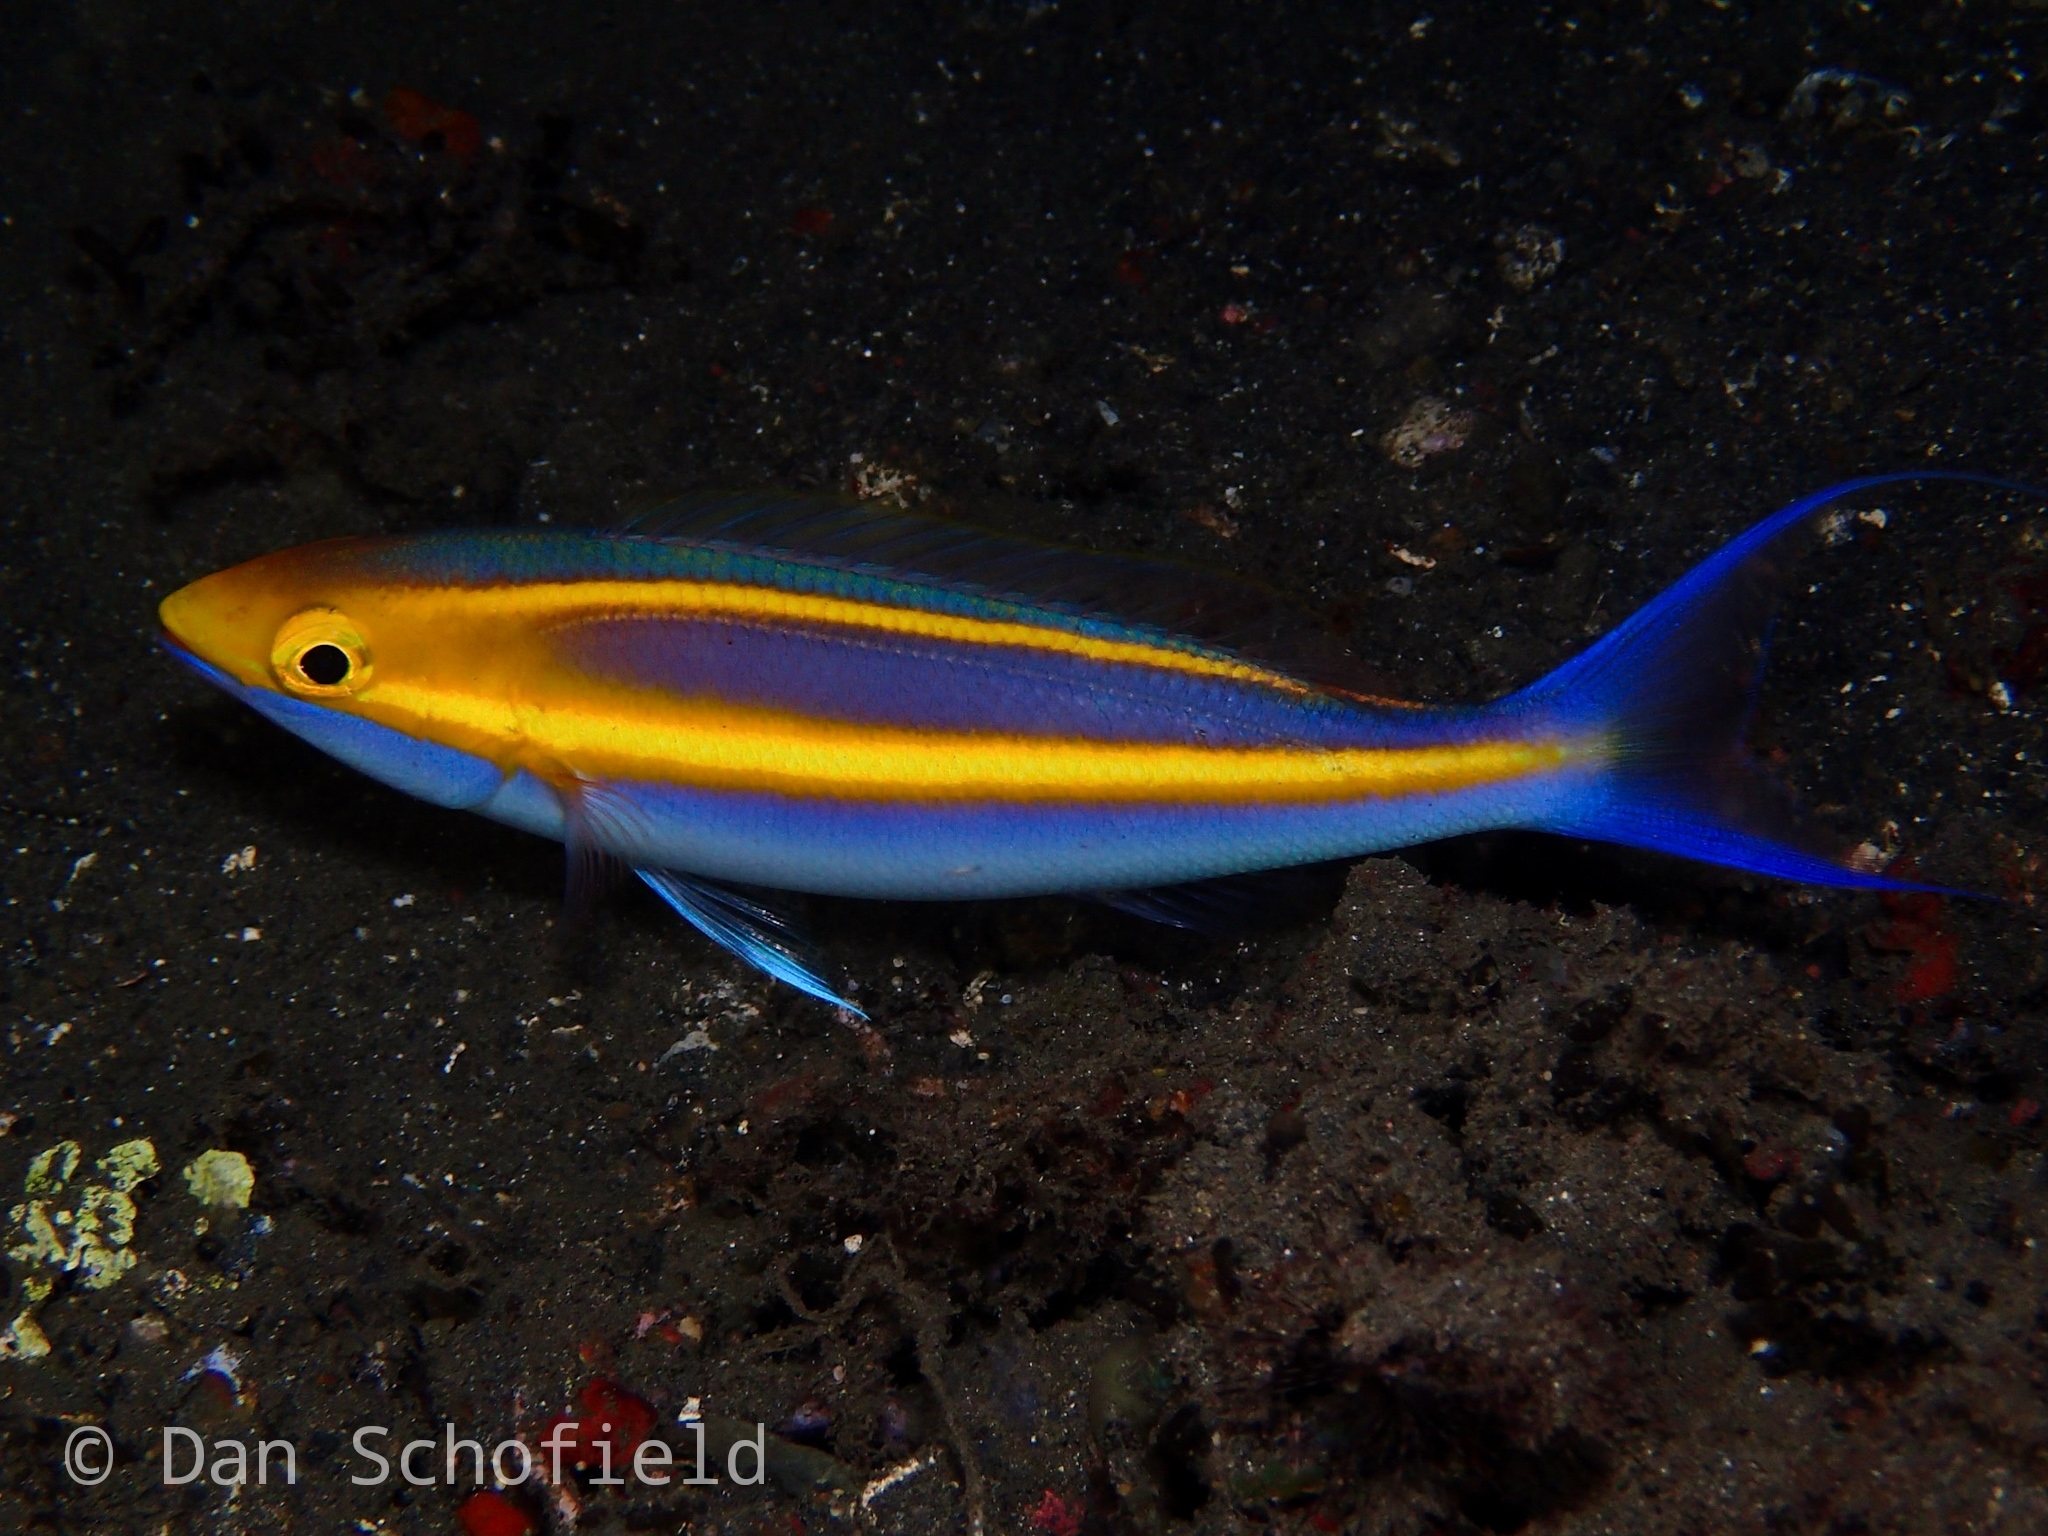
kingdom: Animalia
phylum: Chordata
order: Perciformes
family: Nemipteridae
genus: Pentapodus
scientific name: Pentapodus emeryii
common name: Double whiptail
